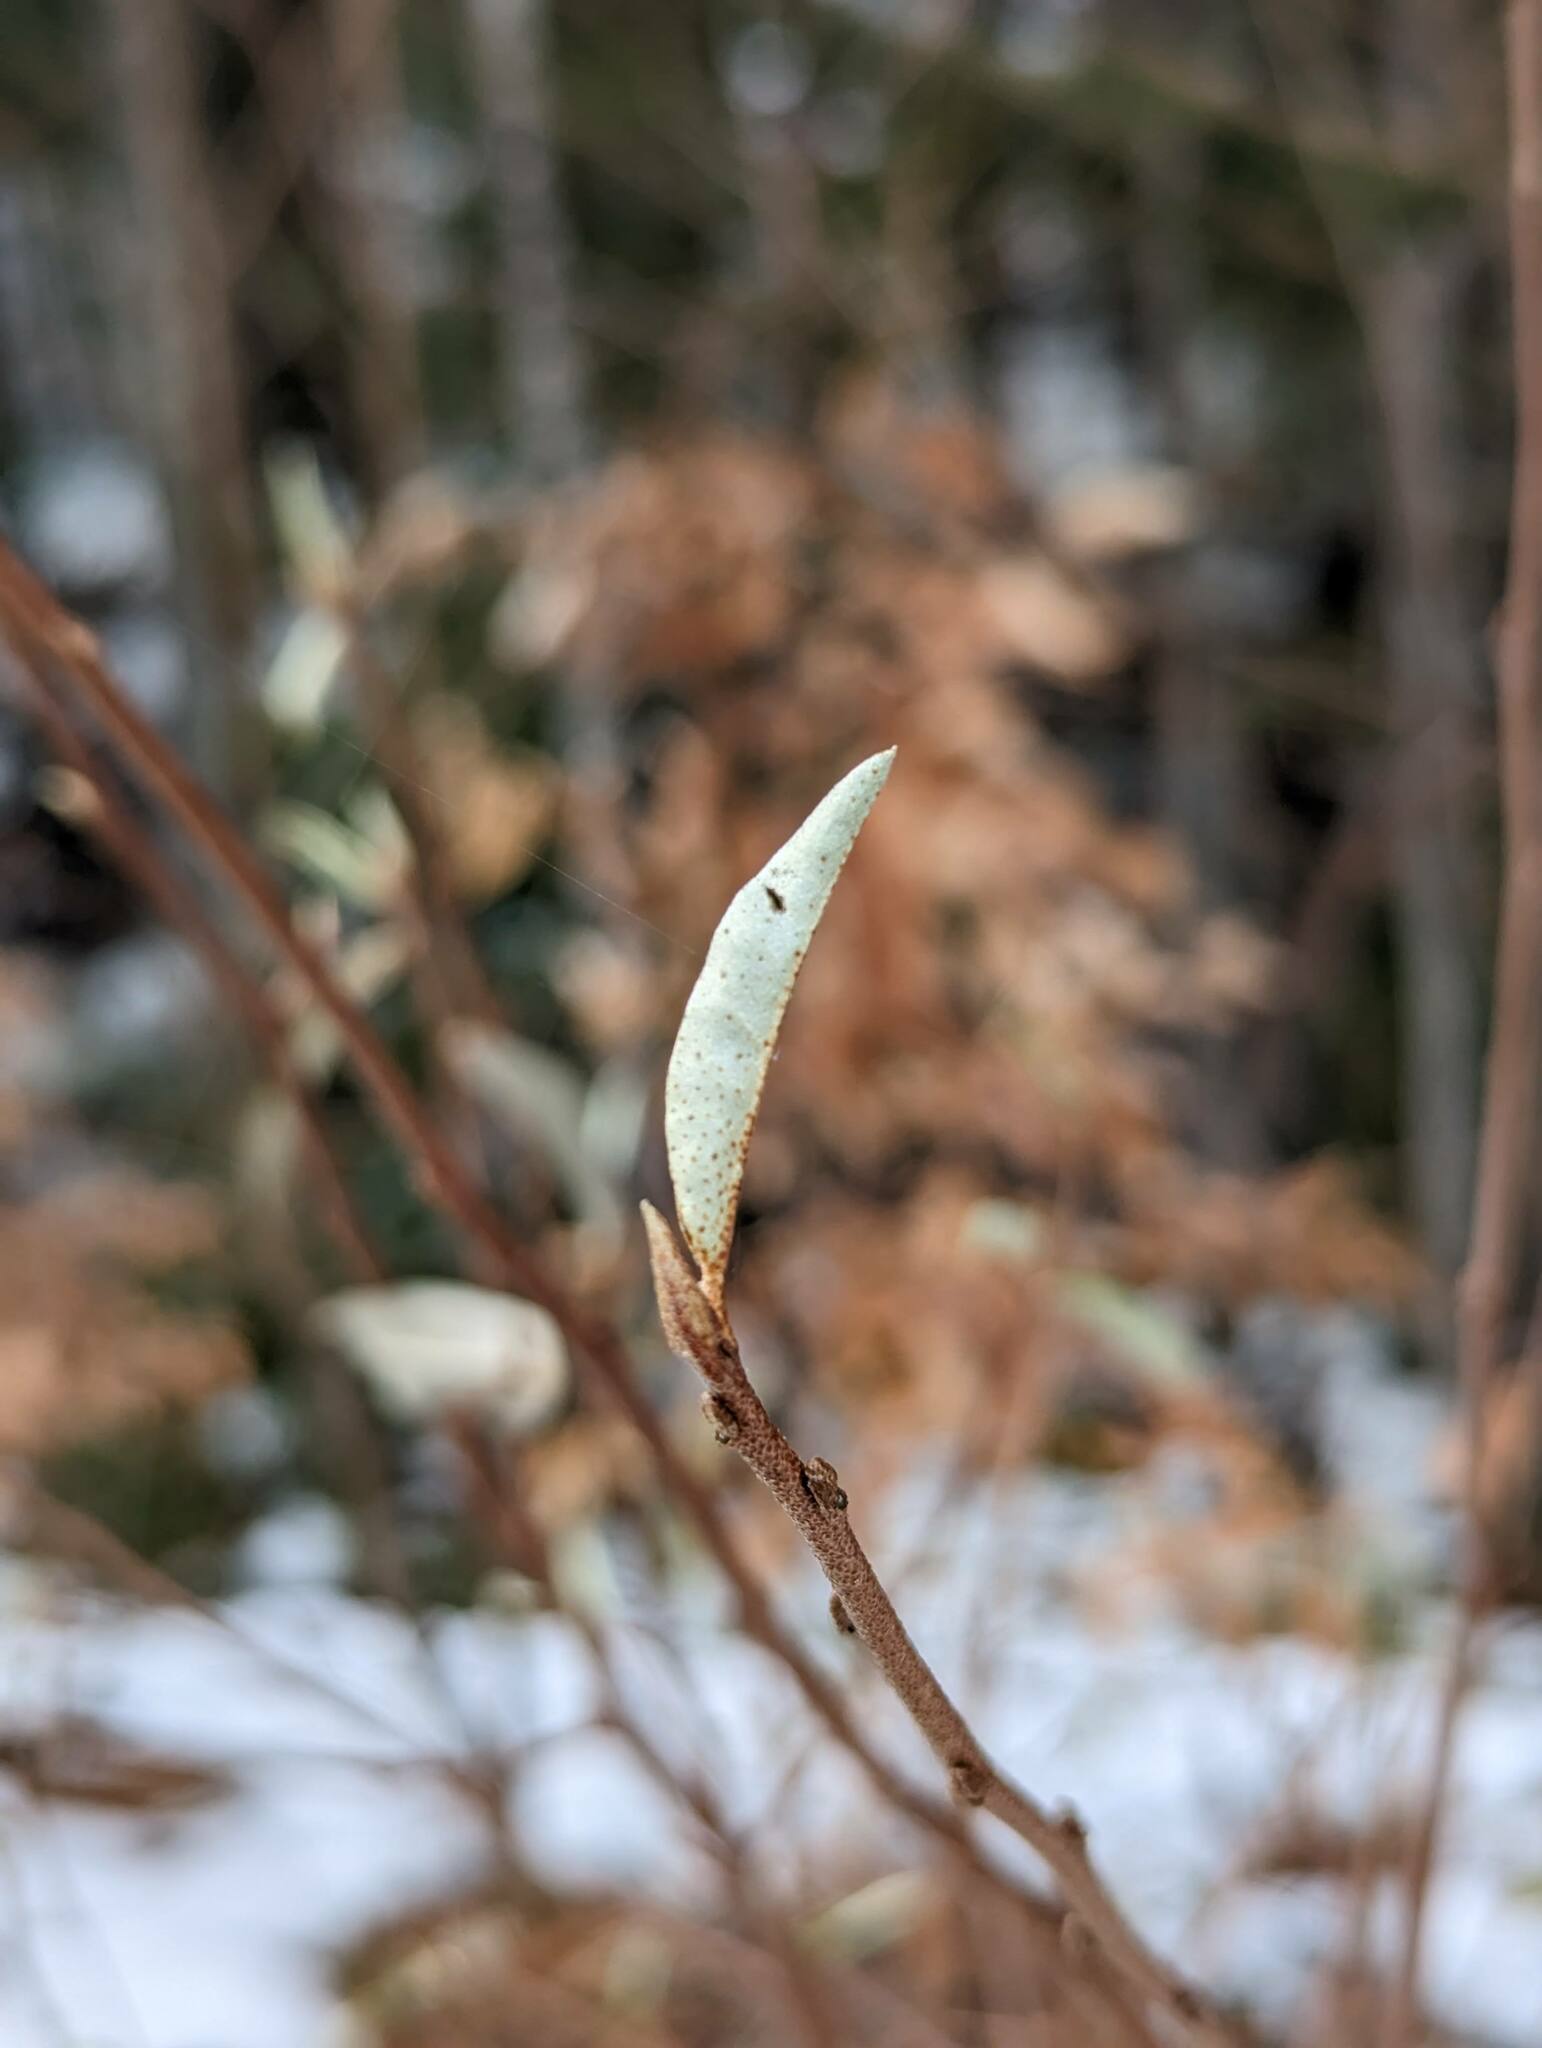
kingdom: Plantae
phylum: Tracheophyta
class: Magnoliopsida
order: Rosales
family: Elaeagnaceae
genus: Elaeagnus
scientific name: Elaeagnus umbellata
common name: Autumn olive
